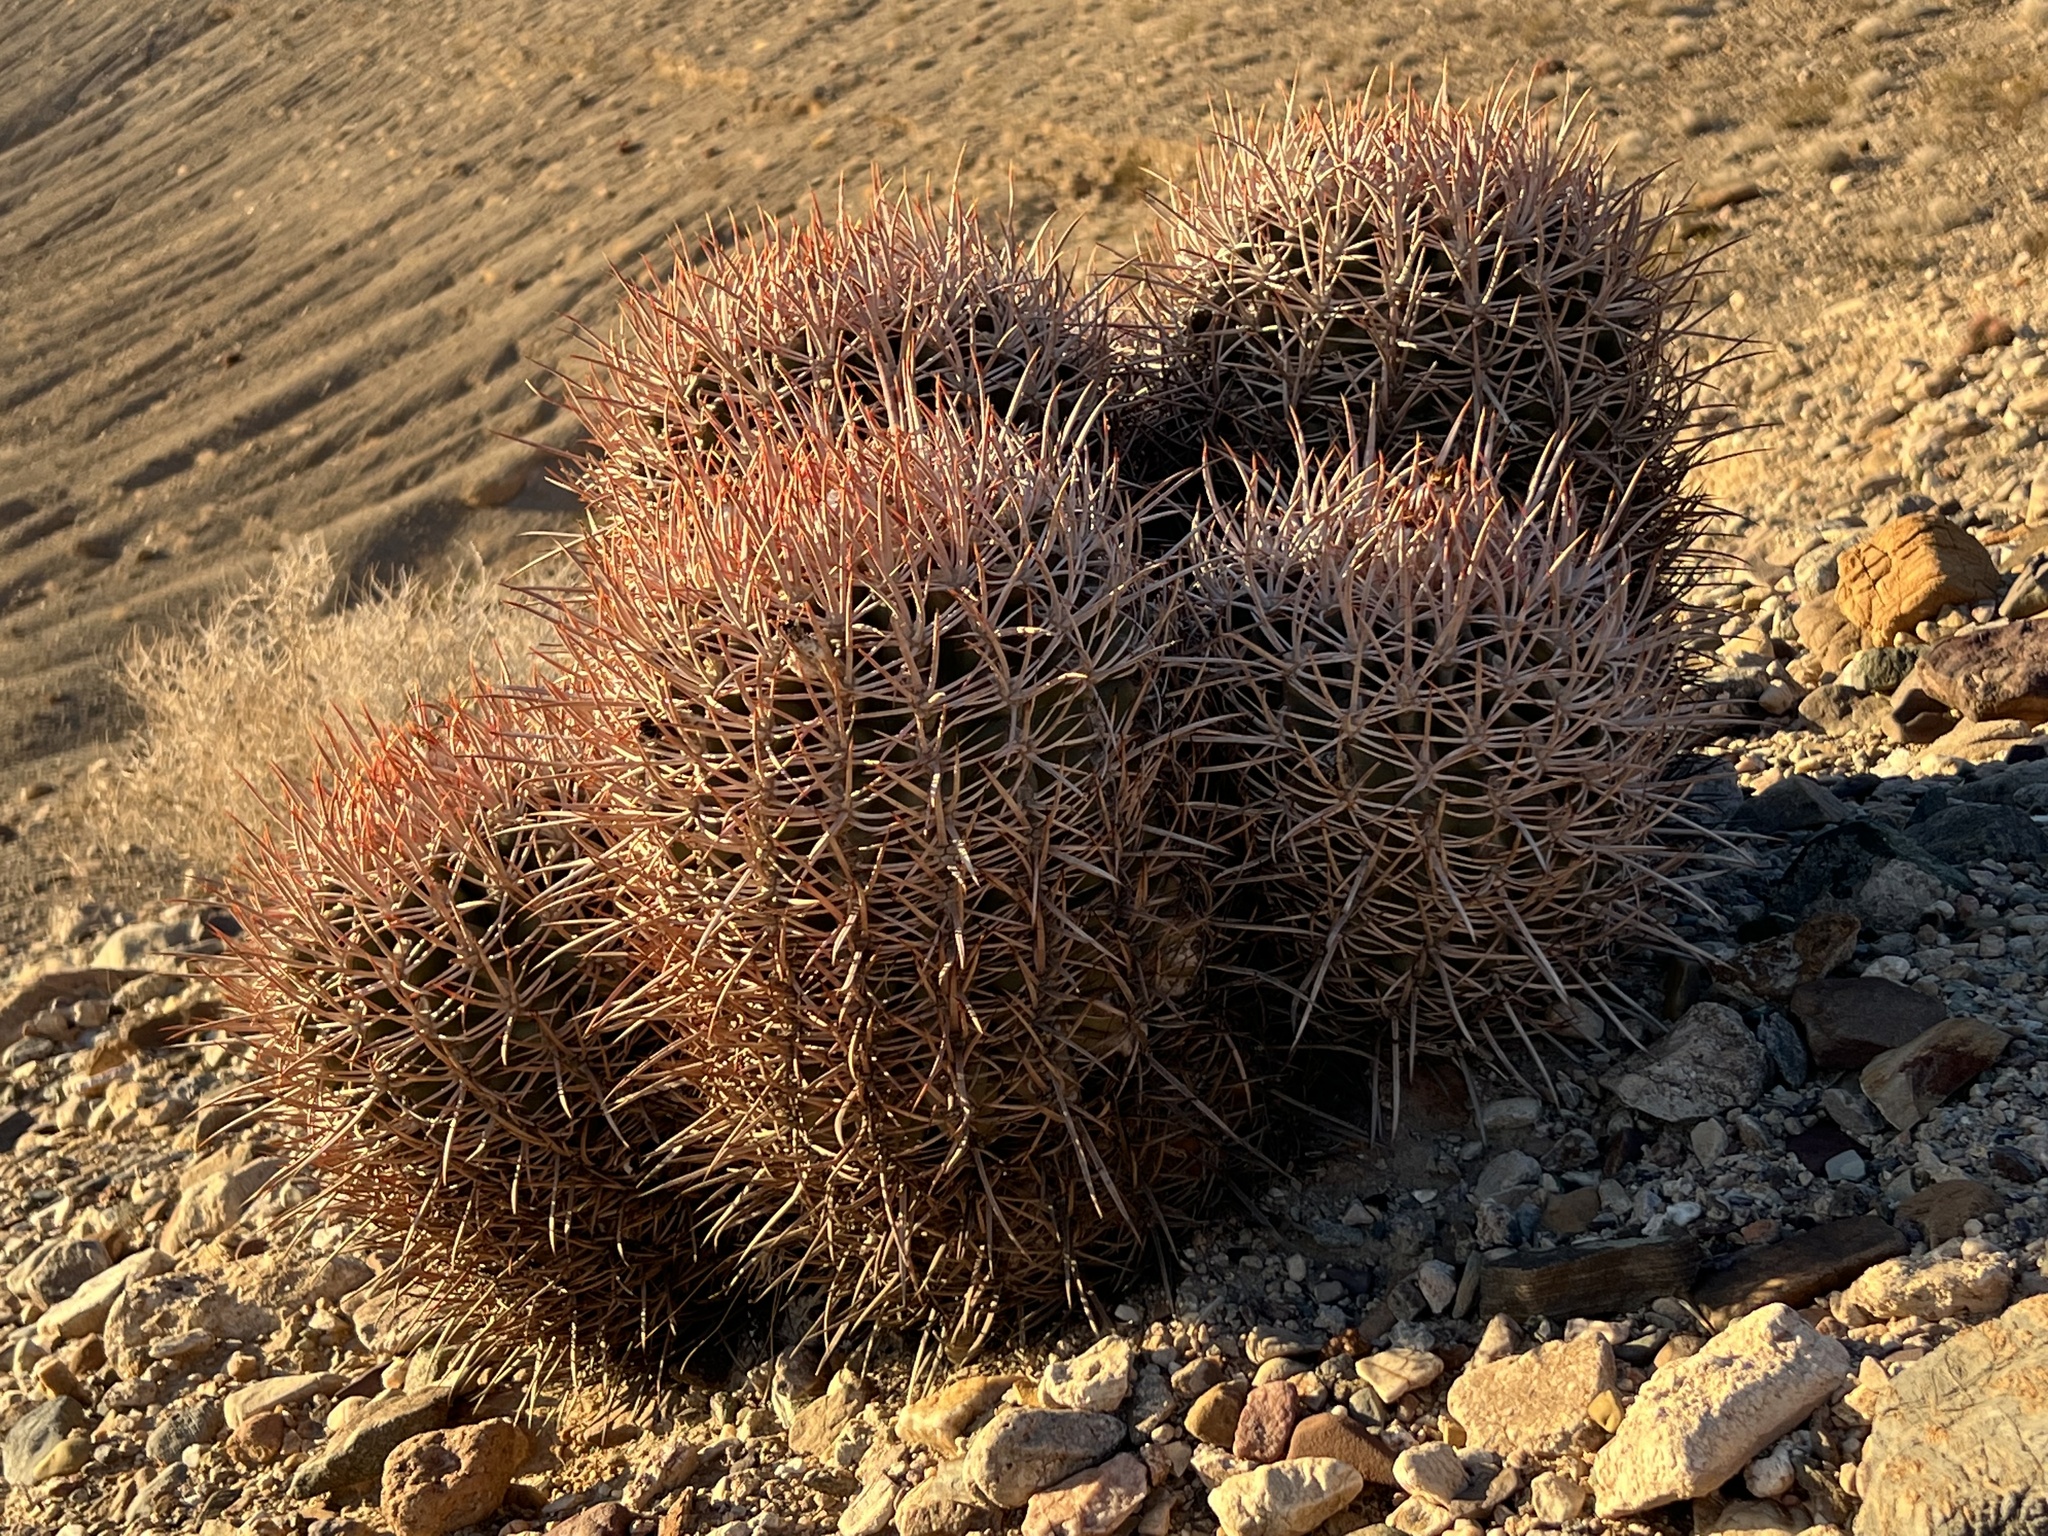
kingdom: Plantae
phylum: Tracheophyta
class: Magnoliopsida
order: Caryophyllales
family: Cactaceae
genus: Echinocactus
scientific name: Echinocactus polycephalus
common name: Cottontop cactus
